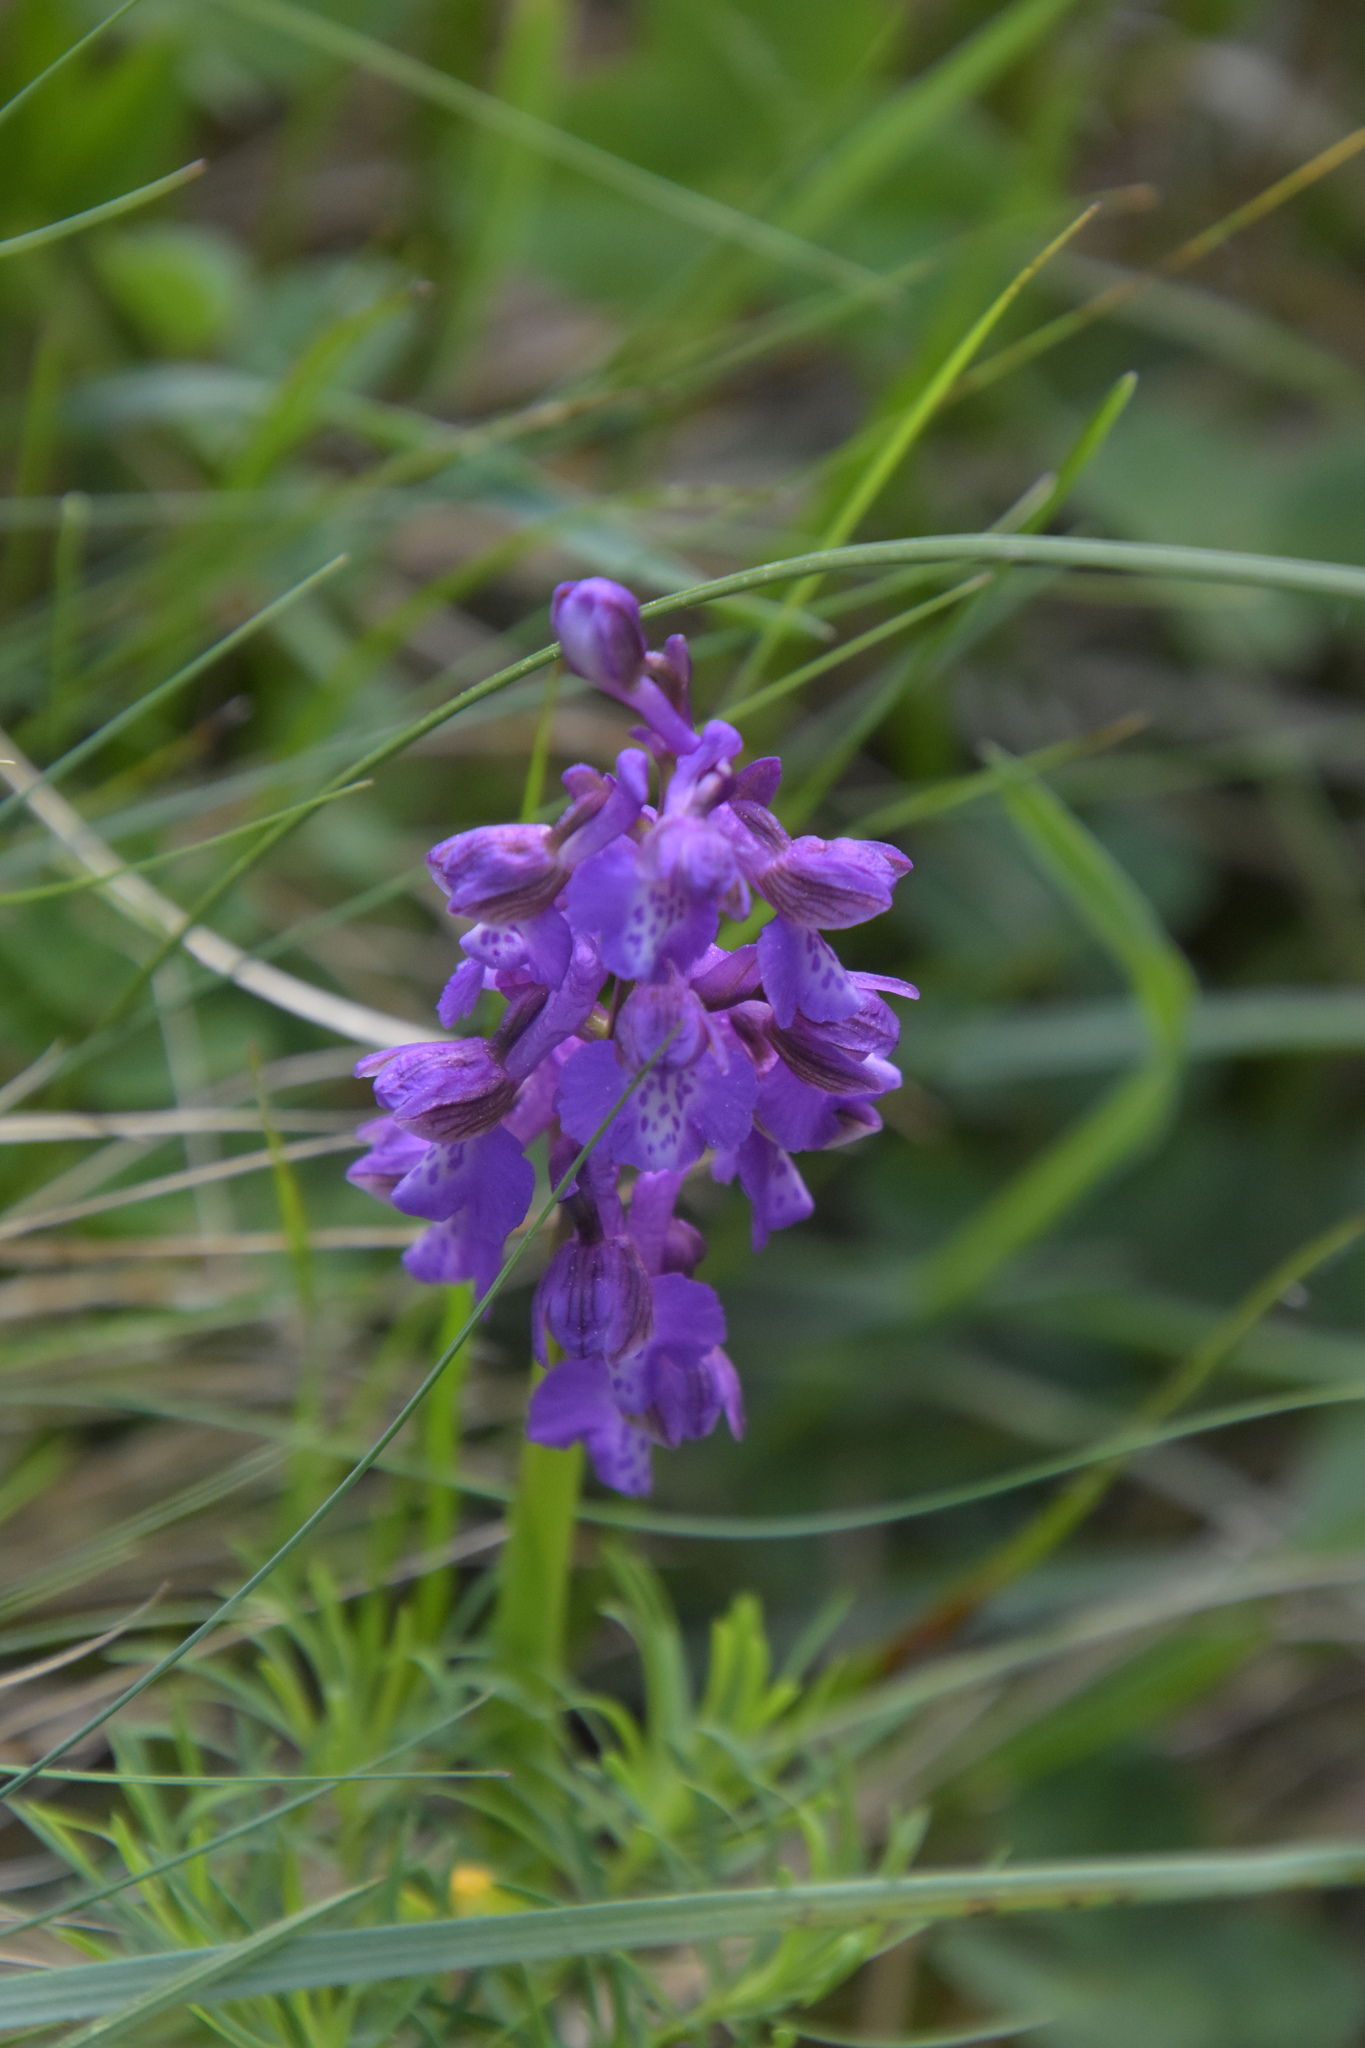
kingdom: Plantae
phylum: Tracheophyta
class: Liliopsida
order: Asparagales
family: Orchidaceae
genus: Anacamptis
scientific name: Anacamptis morio
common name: Green-winged orchid
